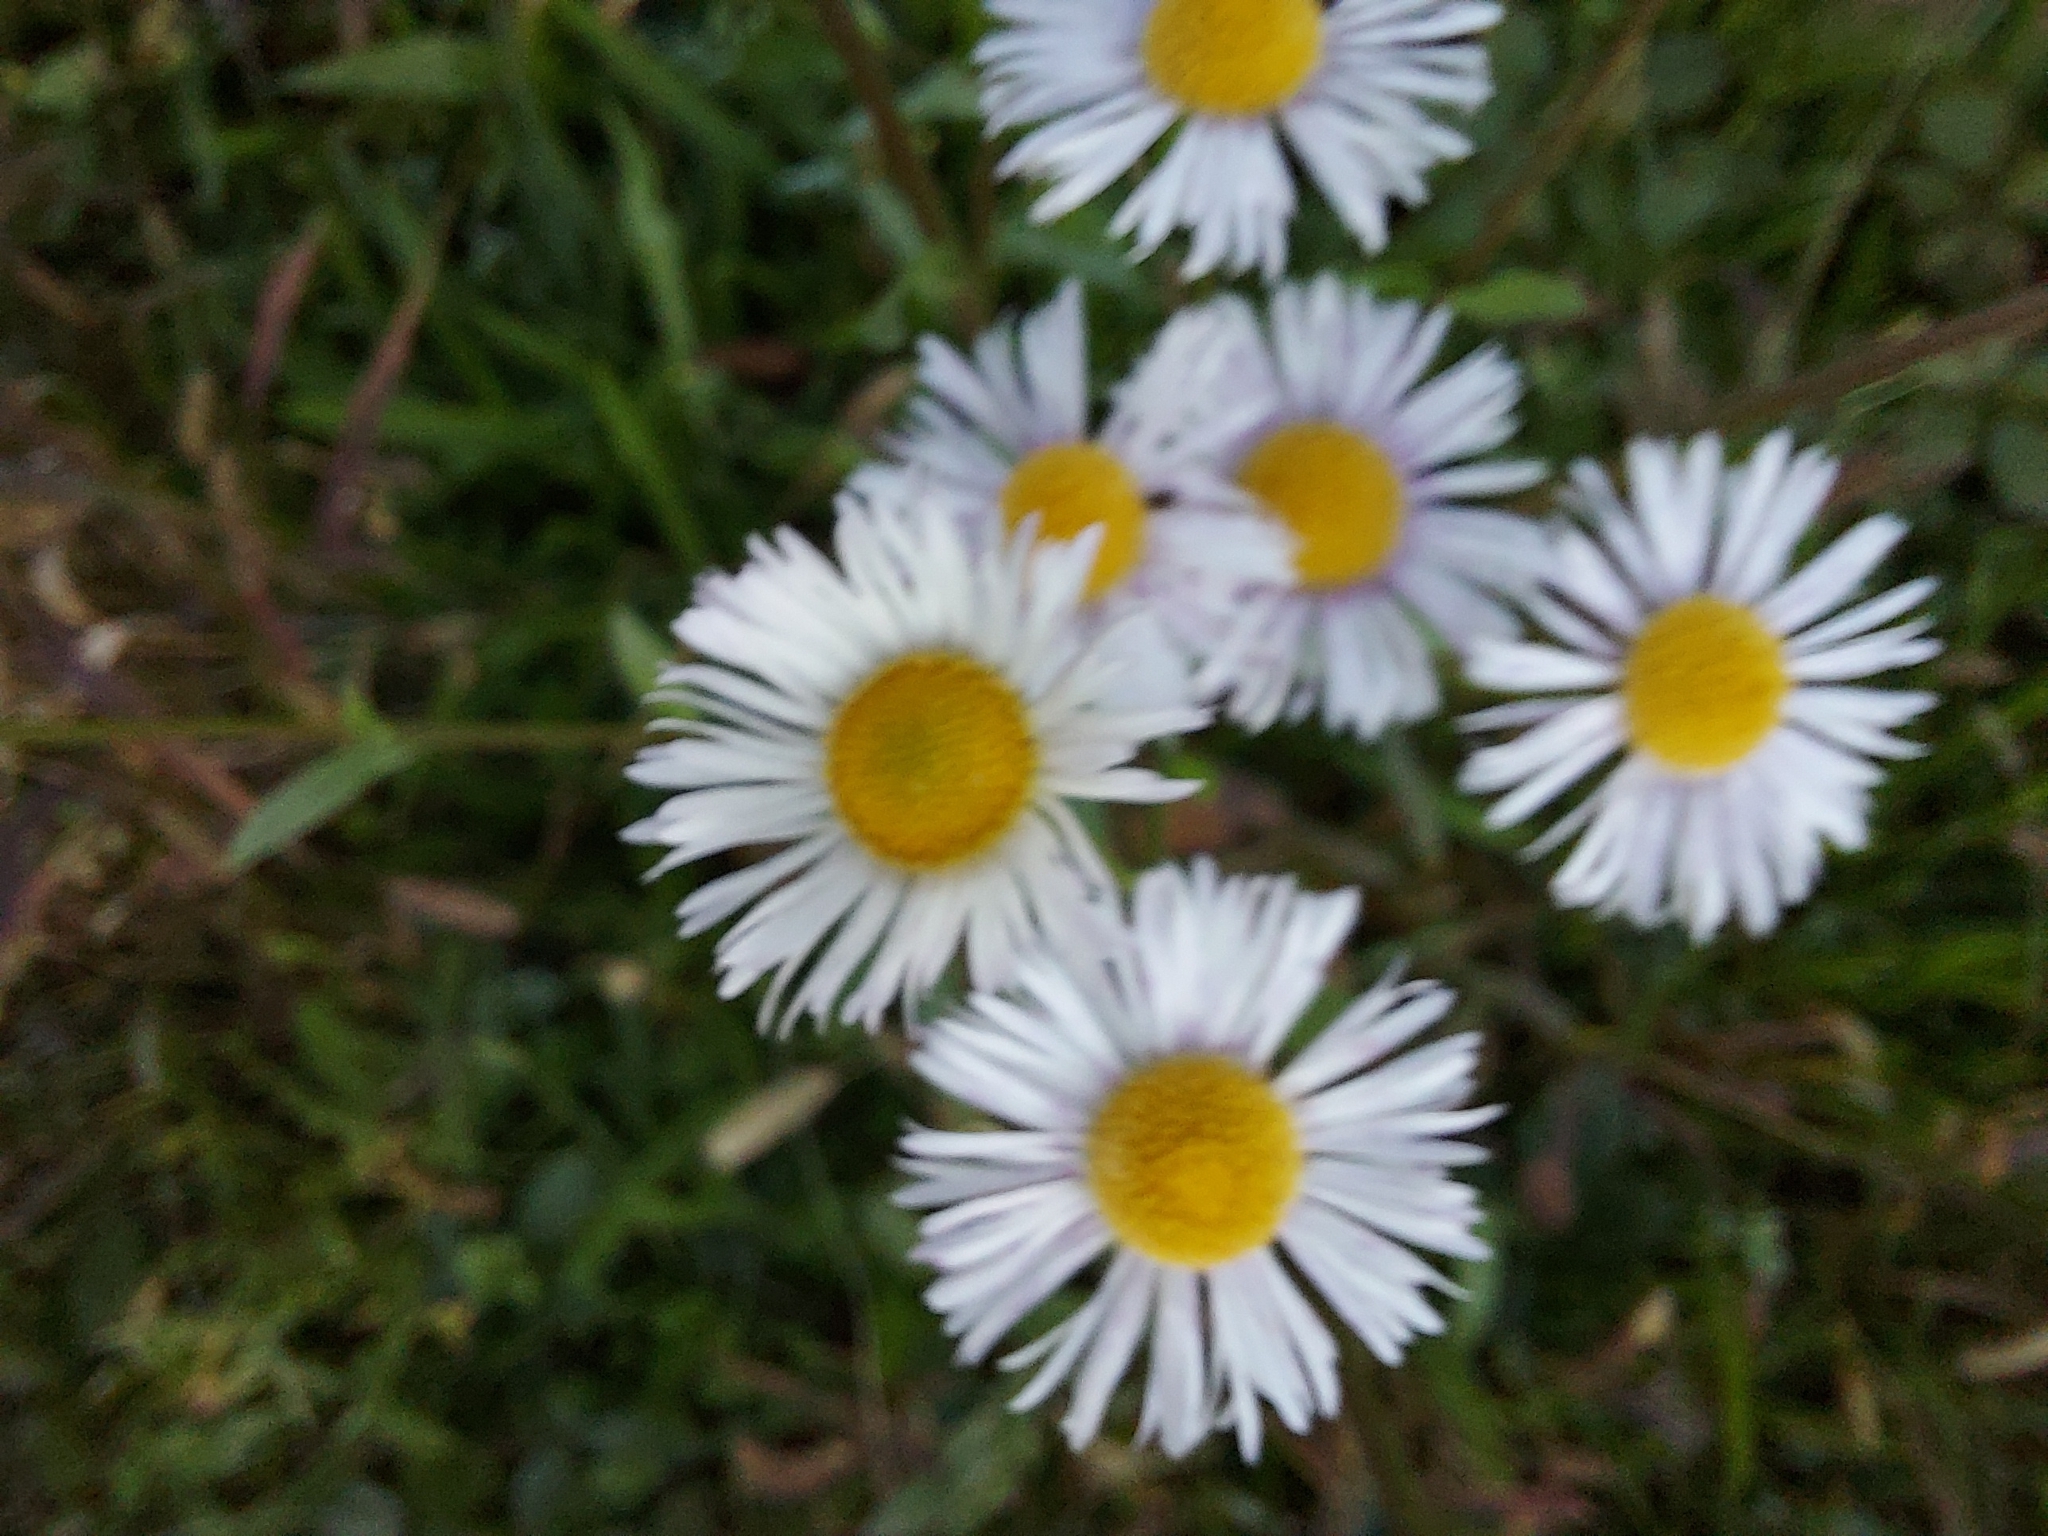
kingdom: Plantae
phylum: Tracheophyta
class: Magnoliopsida
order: Asterales
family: Asteraceae
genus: Erigeron
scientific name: Erigeron annuus
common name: Tall fleabane
